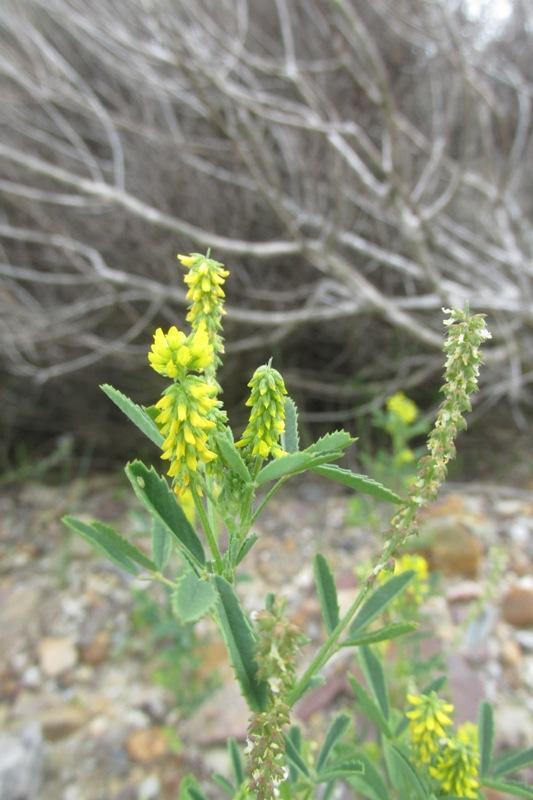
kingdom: Plantae
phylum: Tracheophyta
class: Magnoliopsida
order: Fabales
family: Fabaceae
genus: Melilotus
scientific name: Melilotus indicus
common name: Small melilot
